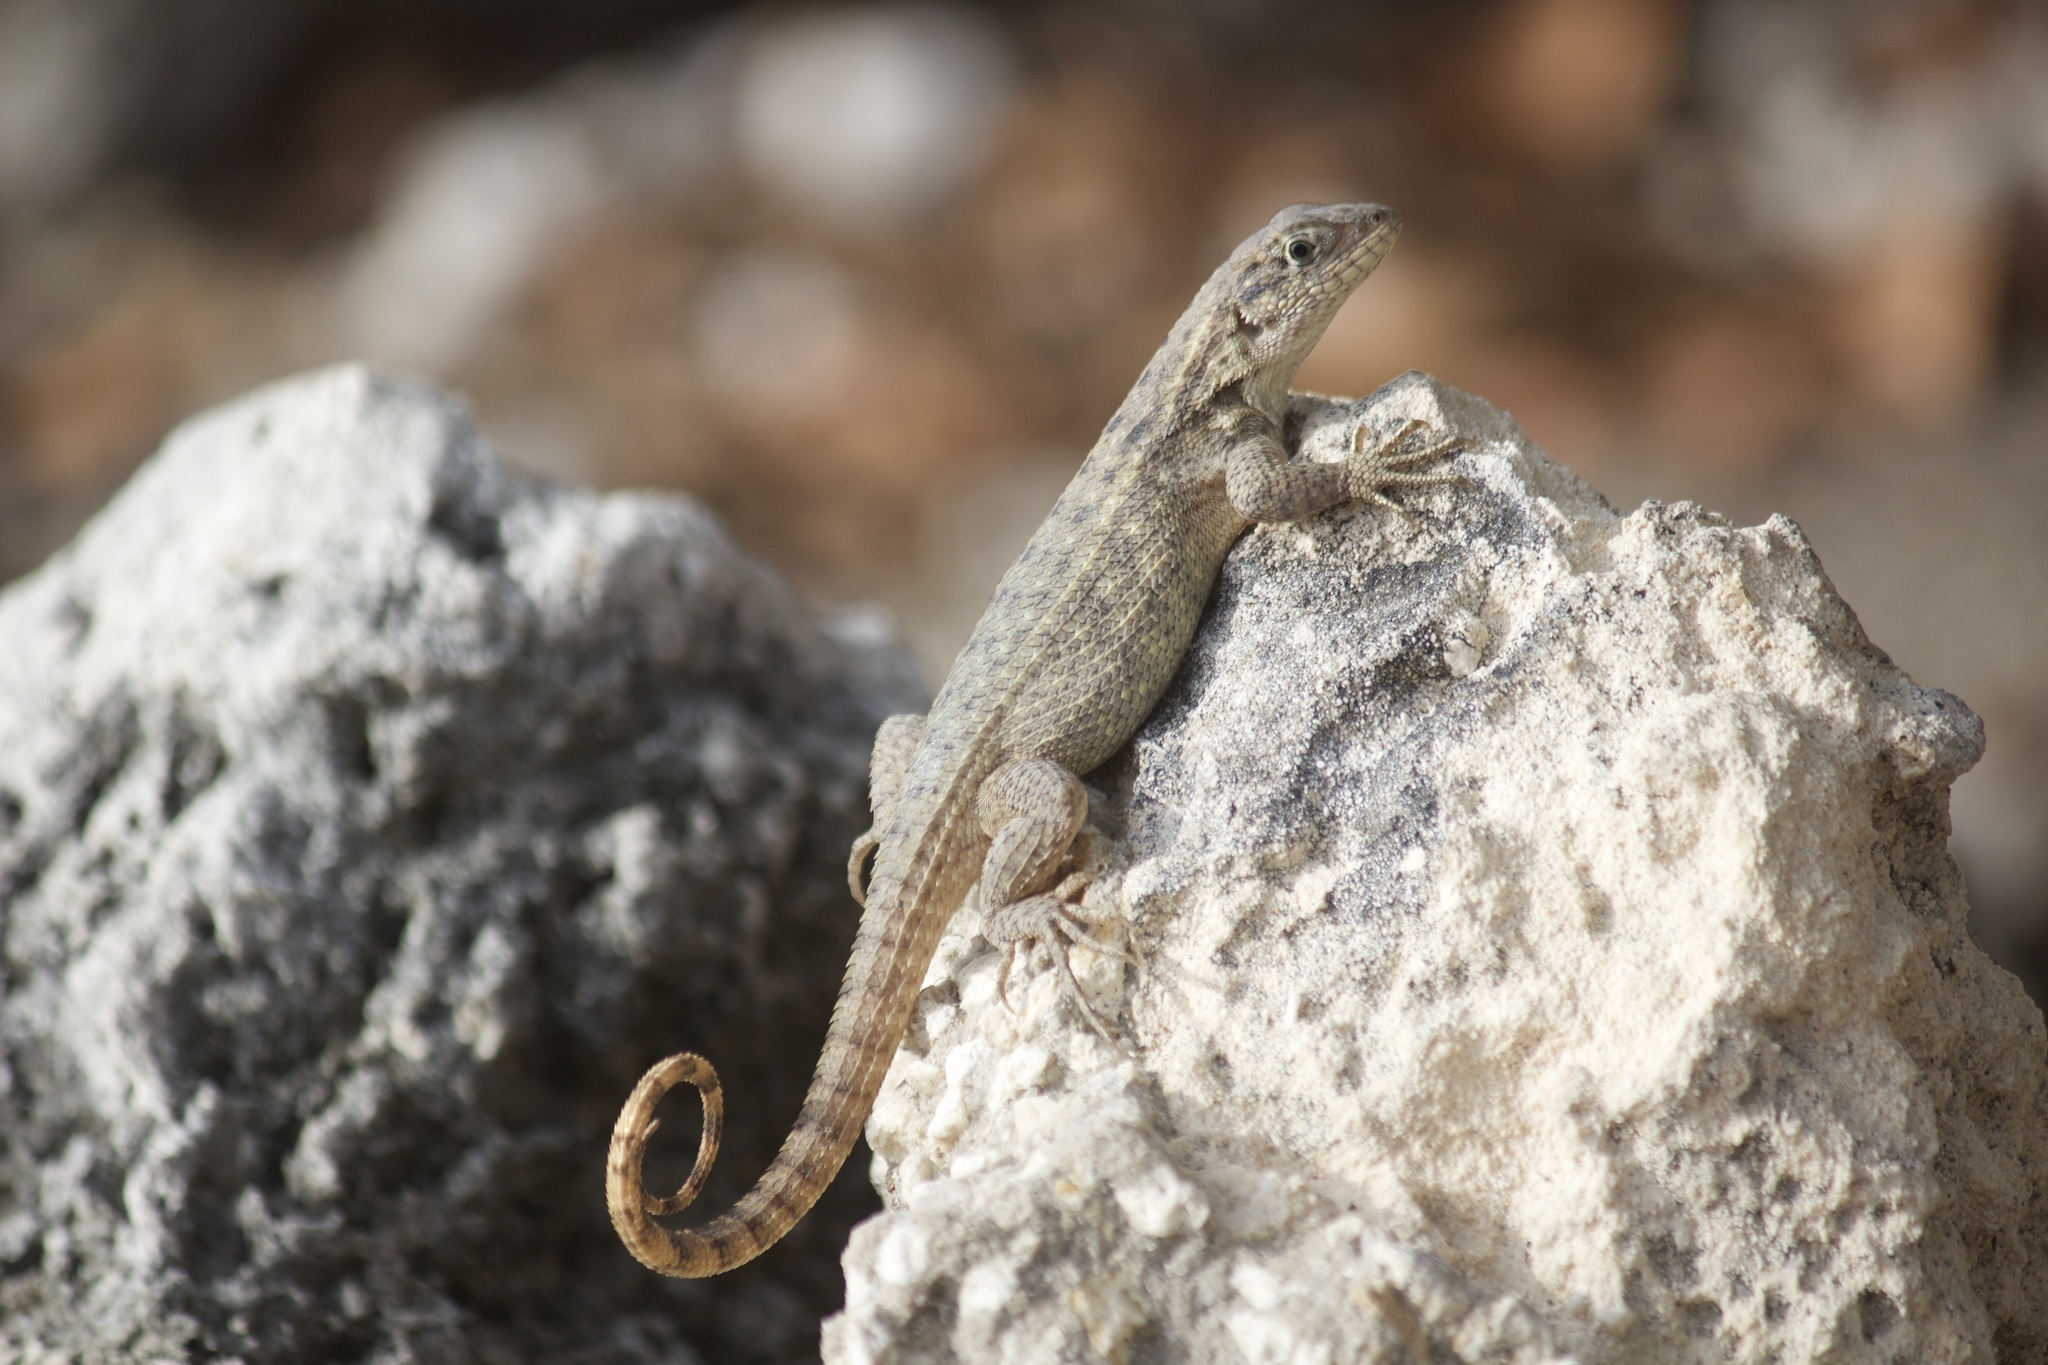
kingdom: Animalia
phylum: Chordata
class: Squamata
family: Leiocephalidae
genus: Leiocephalus
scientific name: Leiocephalus carinatus
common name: Northern curly-tailed lizard
